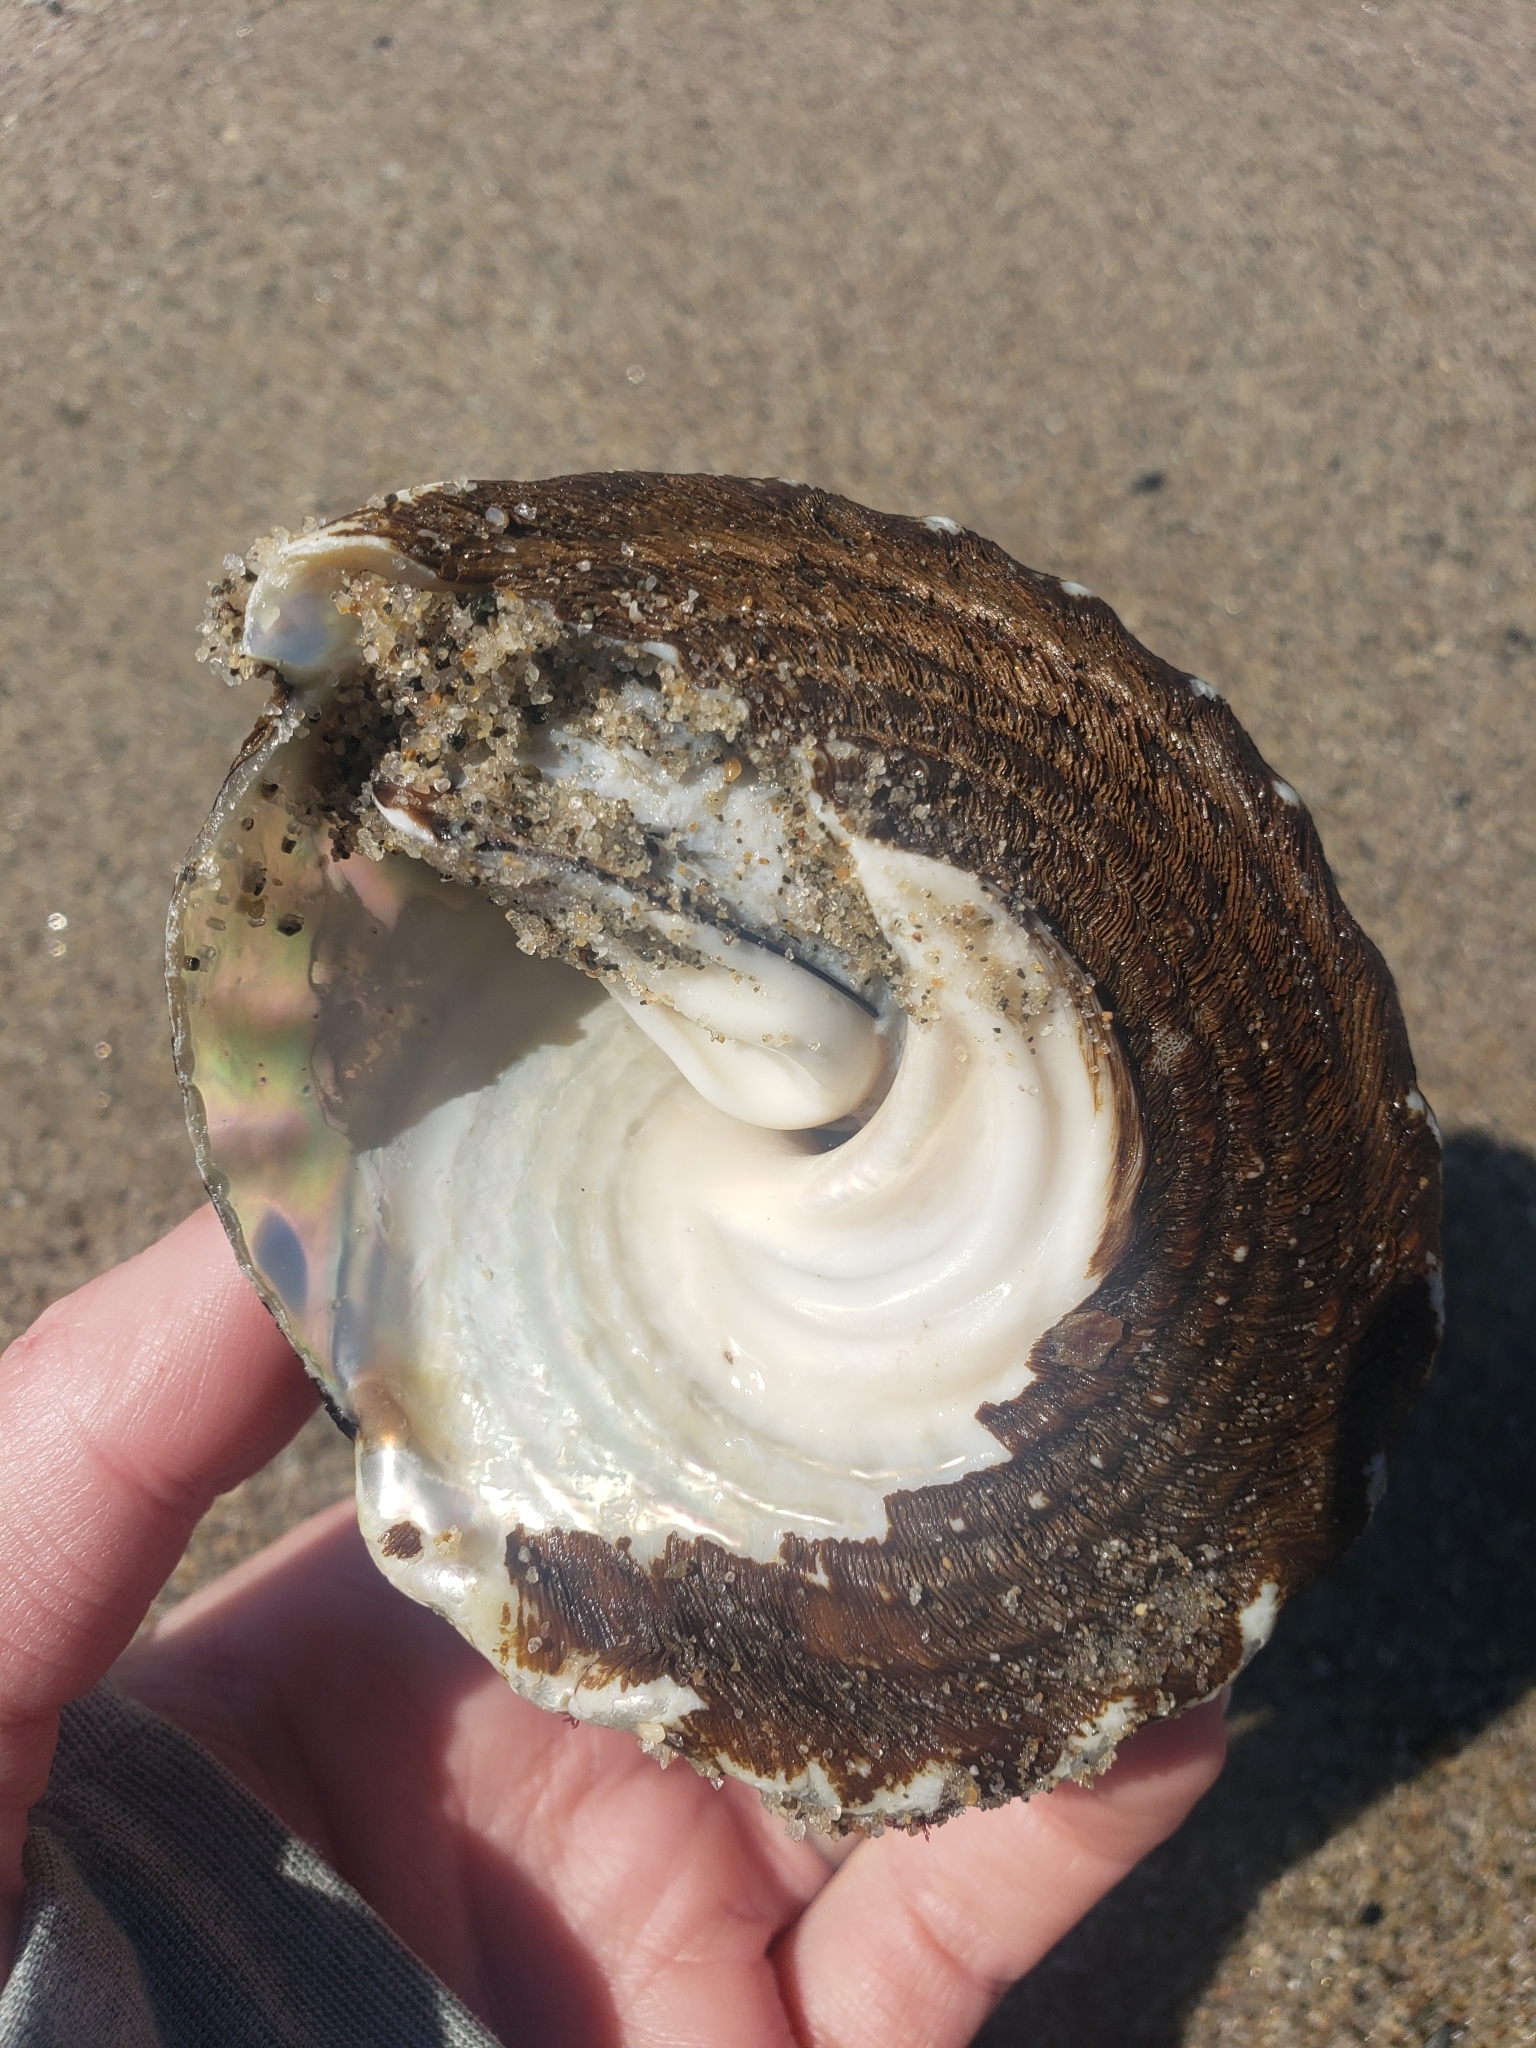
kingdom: Animalia
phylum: Mollusca
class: Gastropoda
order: Trochida
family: Turbinidae
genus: Megastraea
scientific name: Megastraea undosa
